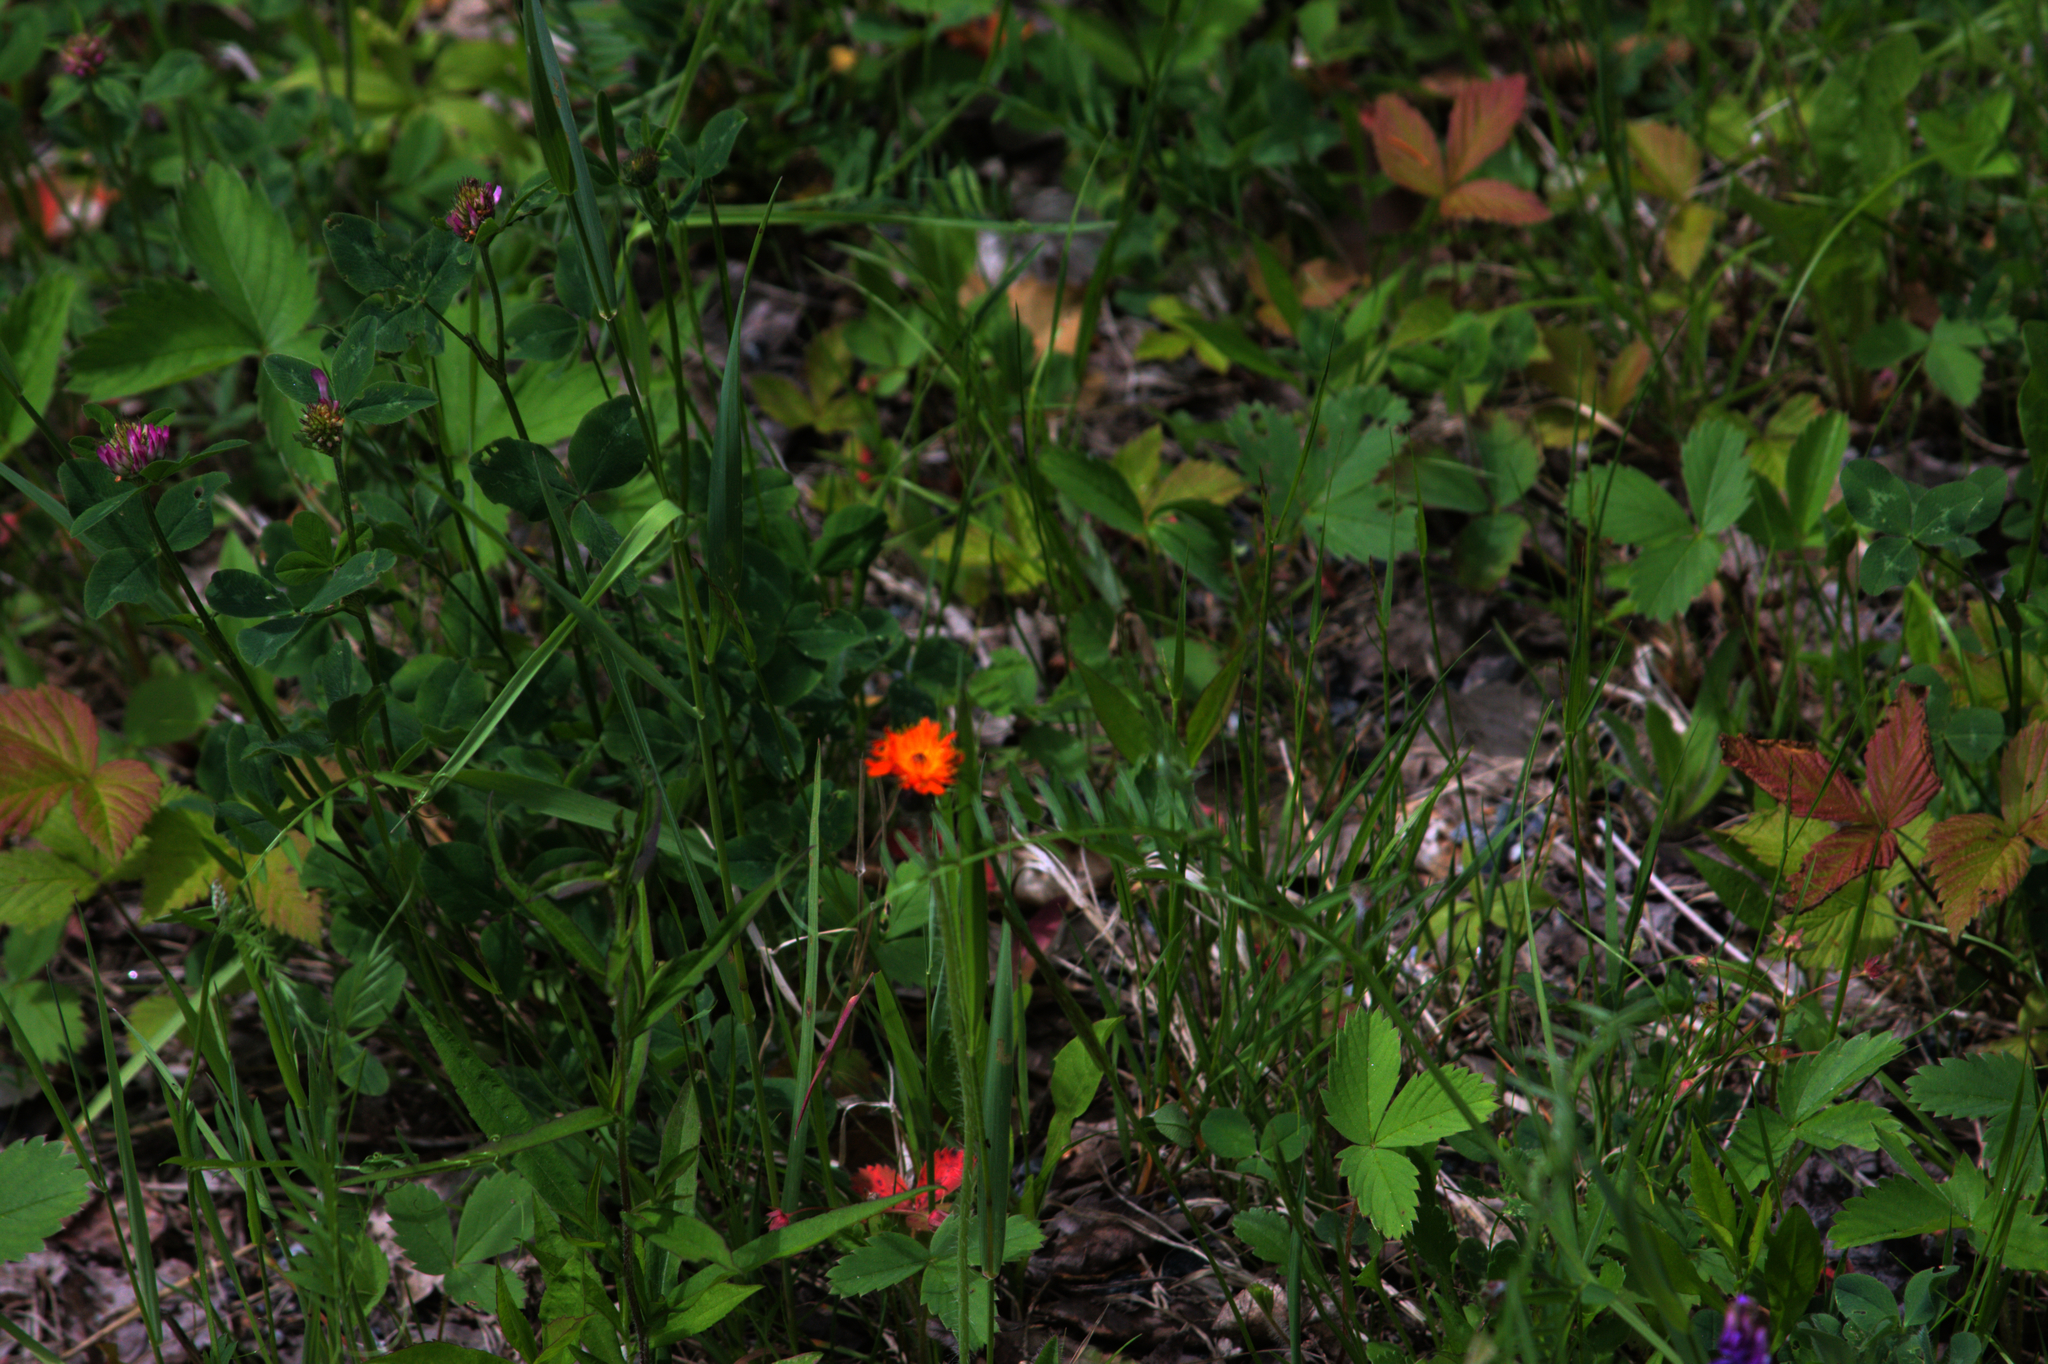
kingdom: Plantae
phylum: Tracheophyta
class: Magnoliopsida
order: Asterales
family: Asteraceae
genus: Pilosella
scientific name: Pilosella aurantiaca
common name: Fox-and-cubs
